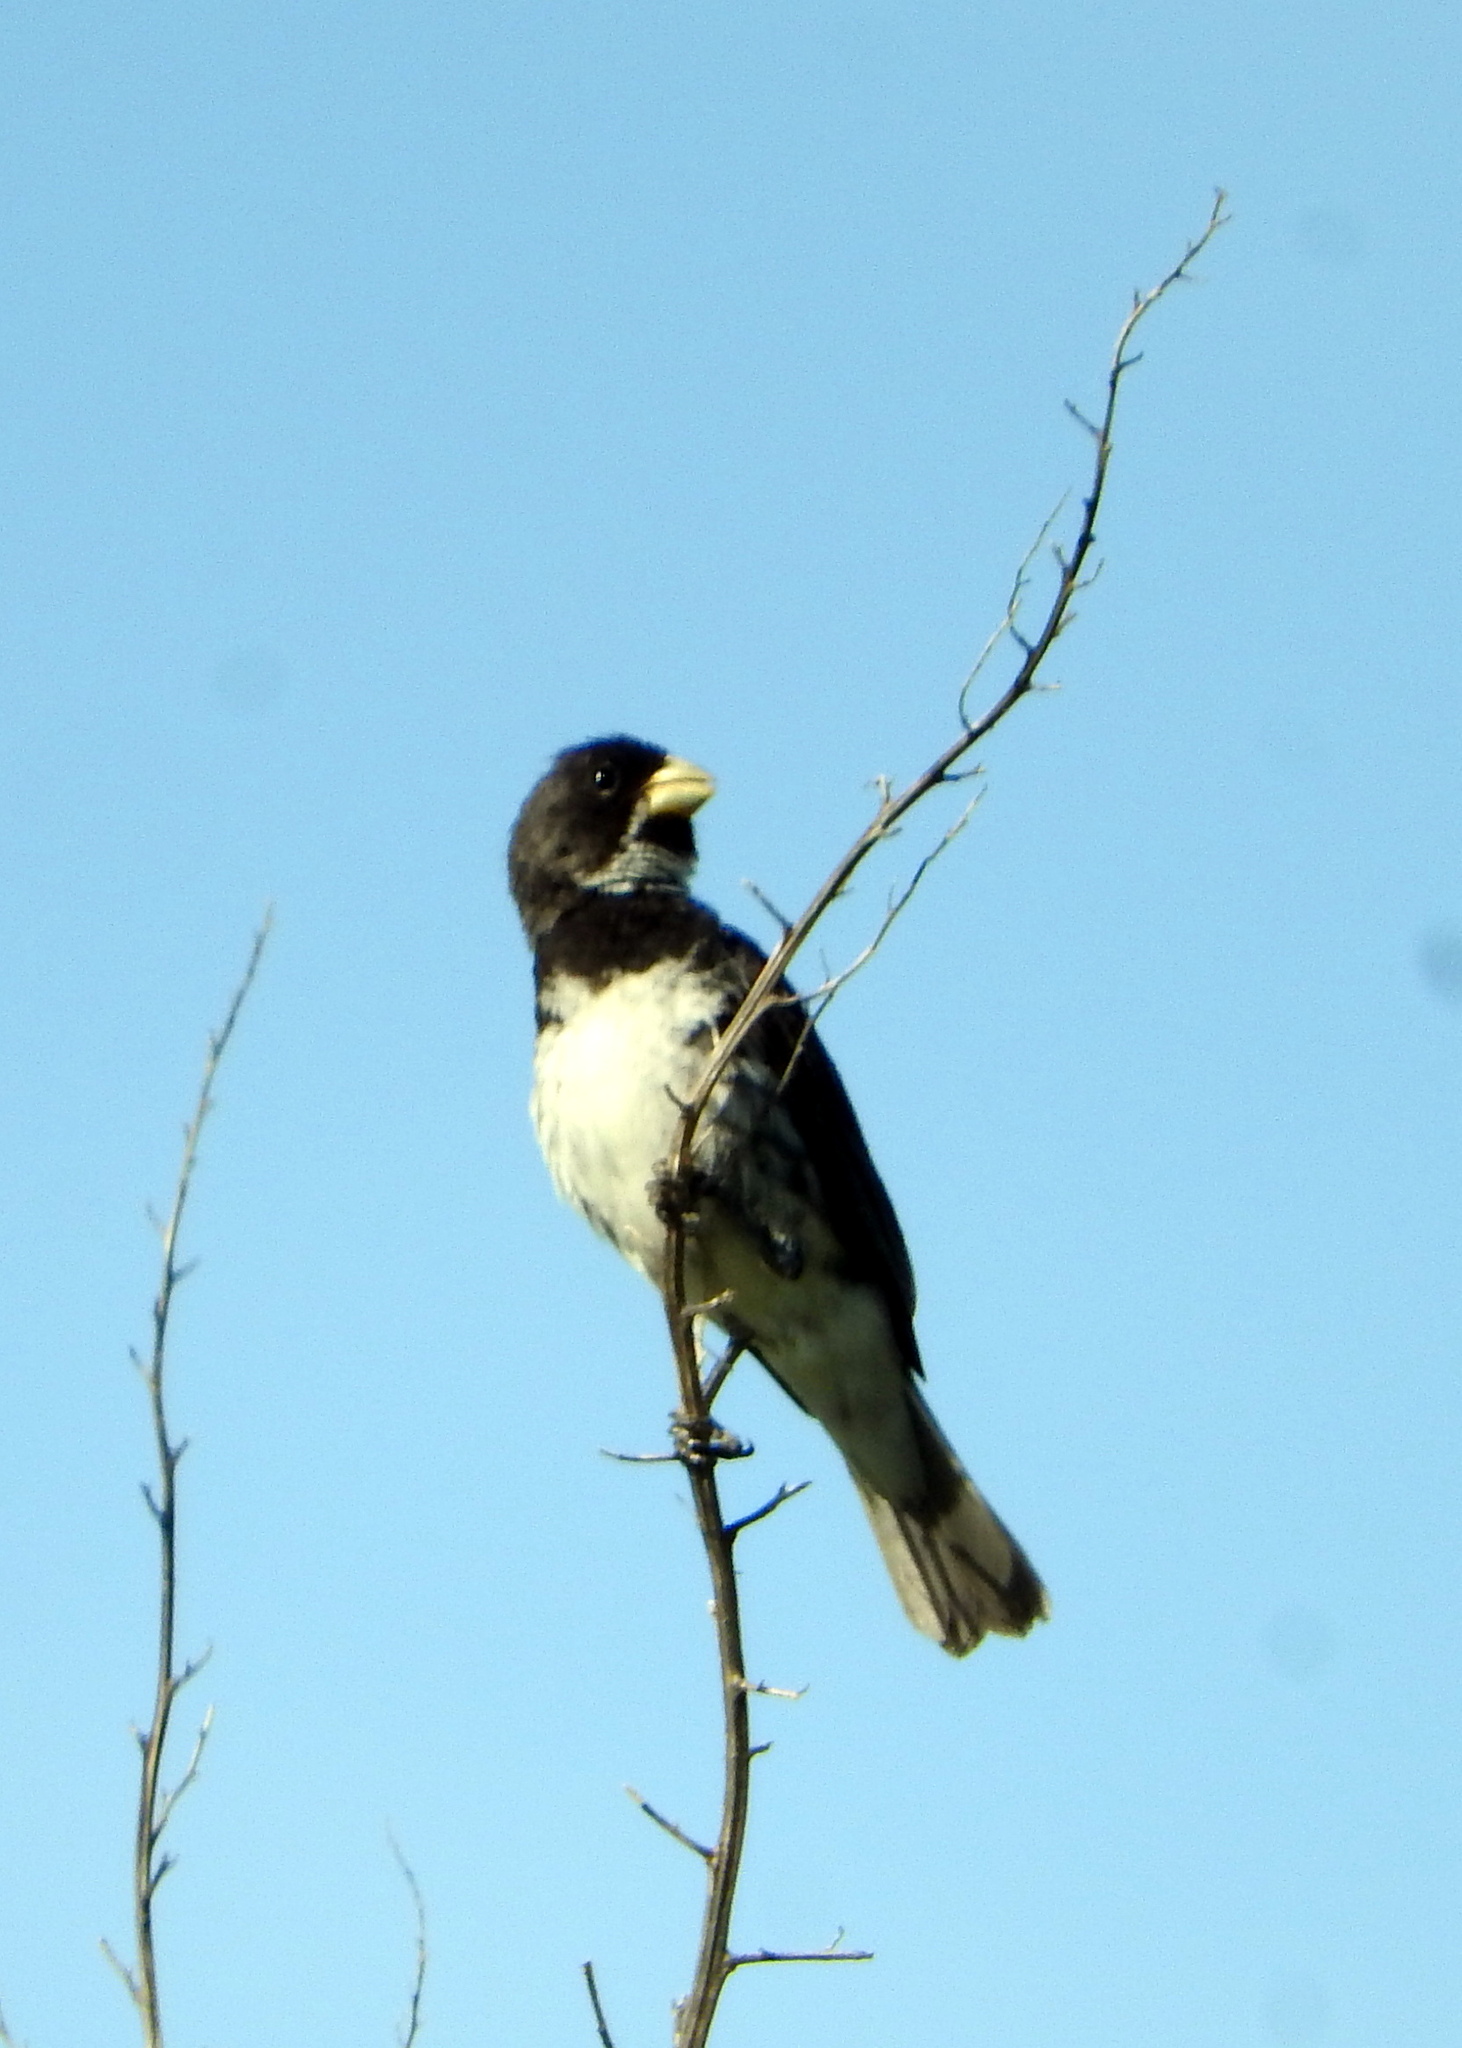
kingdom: Animalia
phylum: Chordata
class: Aves
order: Passeriformes
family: Thraupidae
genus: Sporophila
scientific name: Sporophila caerulescens
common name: Double-collared seedeater
